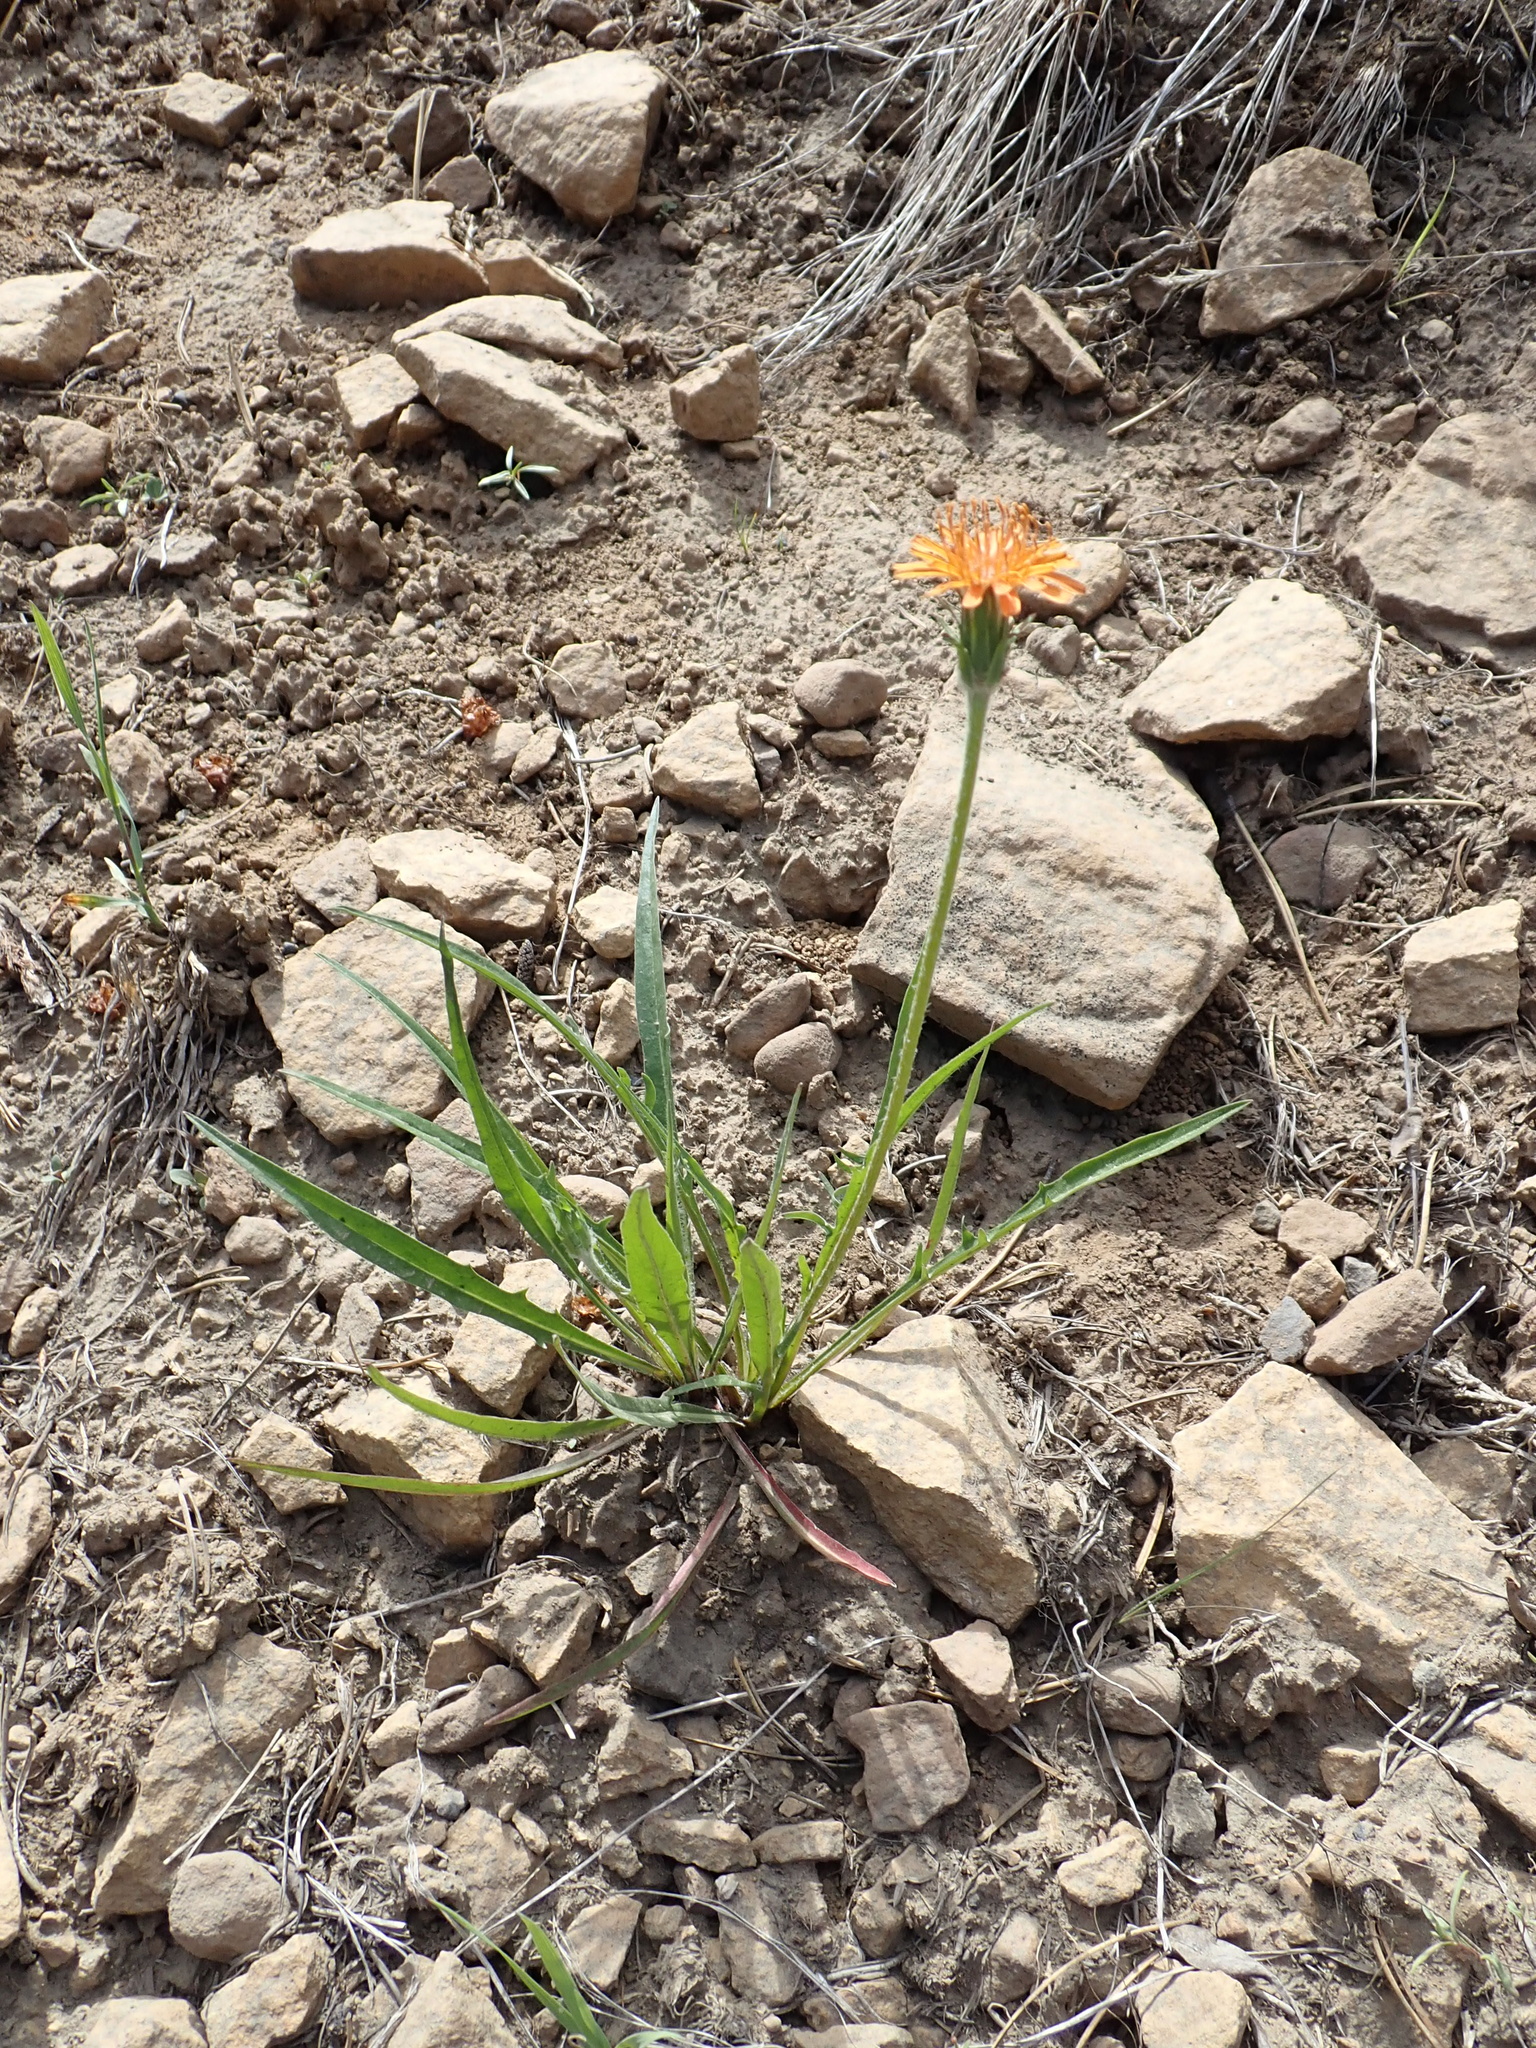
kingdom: Plantae
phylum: Tracheophyta
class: Magnoliopsida
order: Asterales
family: Asteraceae
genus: Agoseris
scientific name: Agoseris aurantiaca
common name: Mountain agoseris
